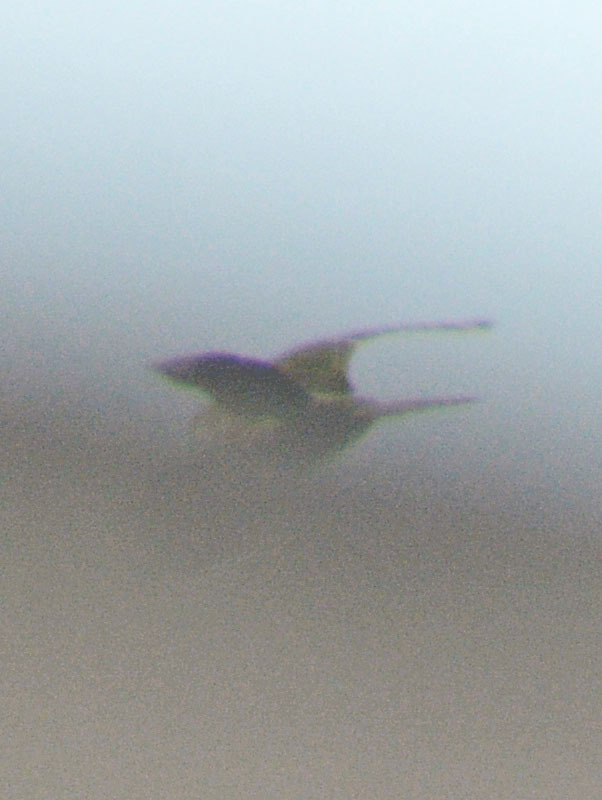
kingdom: Animalia
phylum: Chordata
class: Aves
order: Psittaciformes
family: Psittacidae
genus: Myiopsitta
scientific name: Myiopsitta monachus
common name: Monk parakeet
